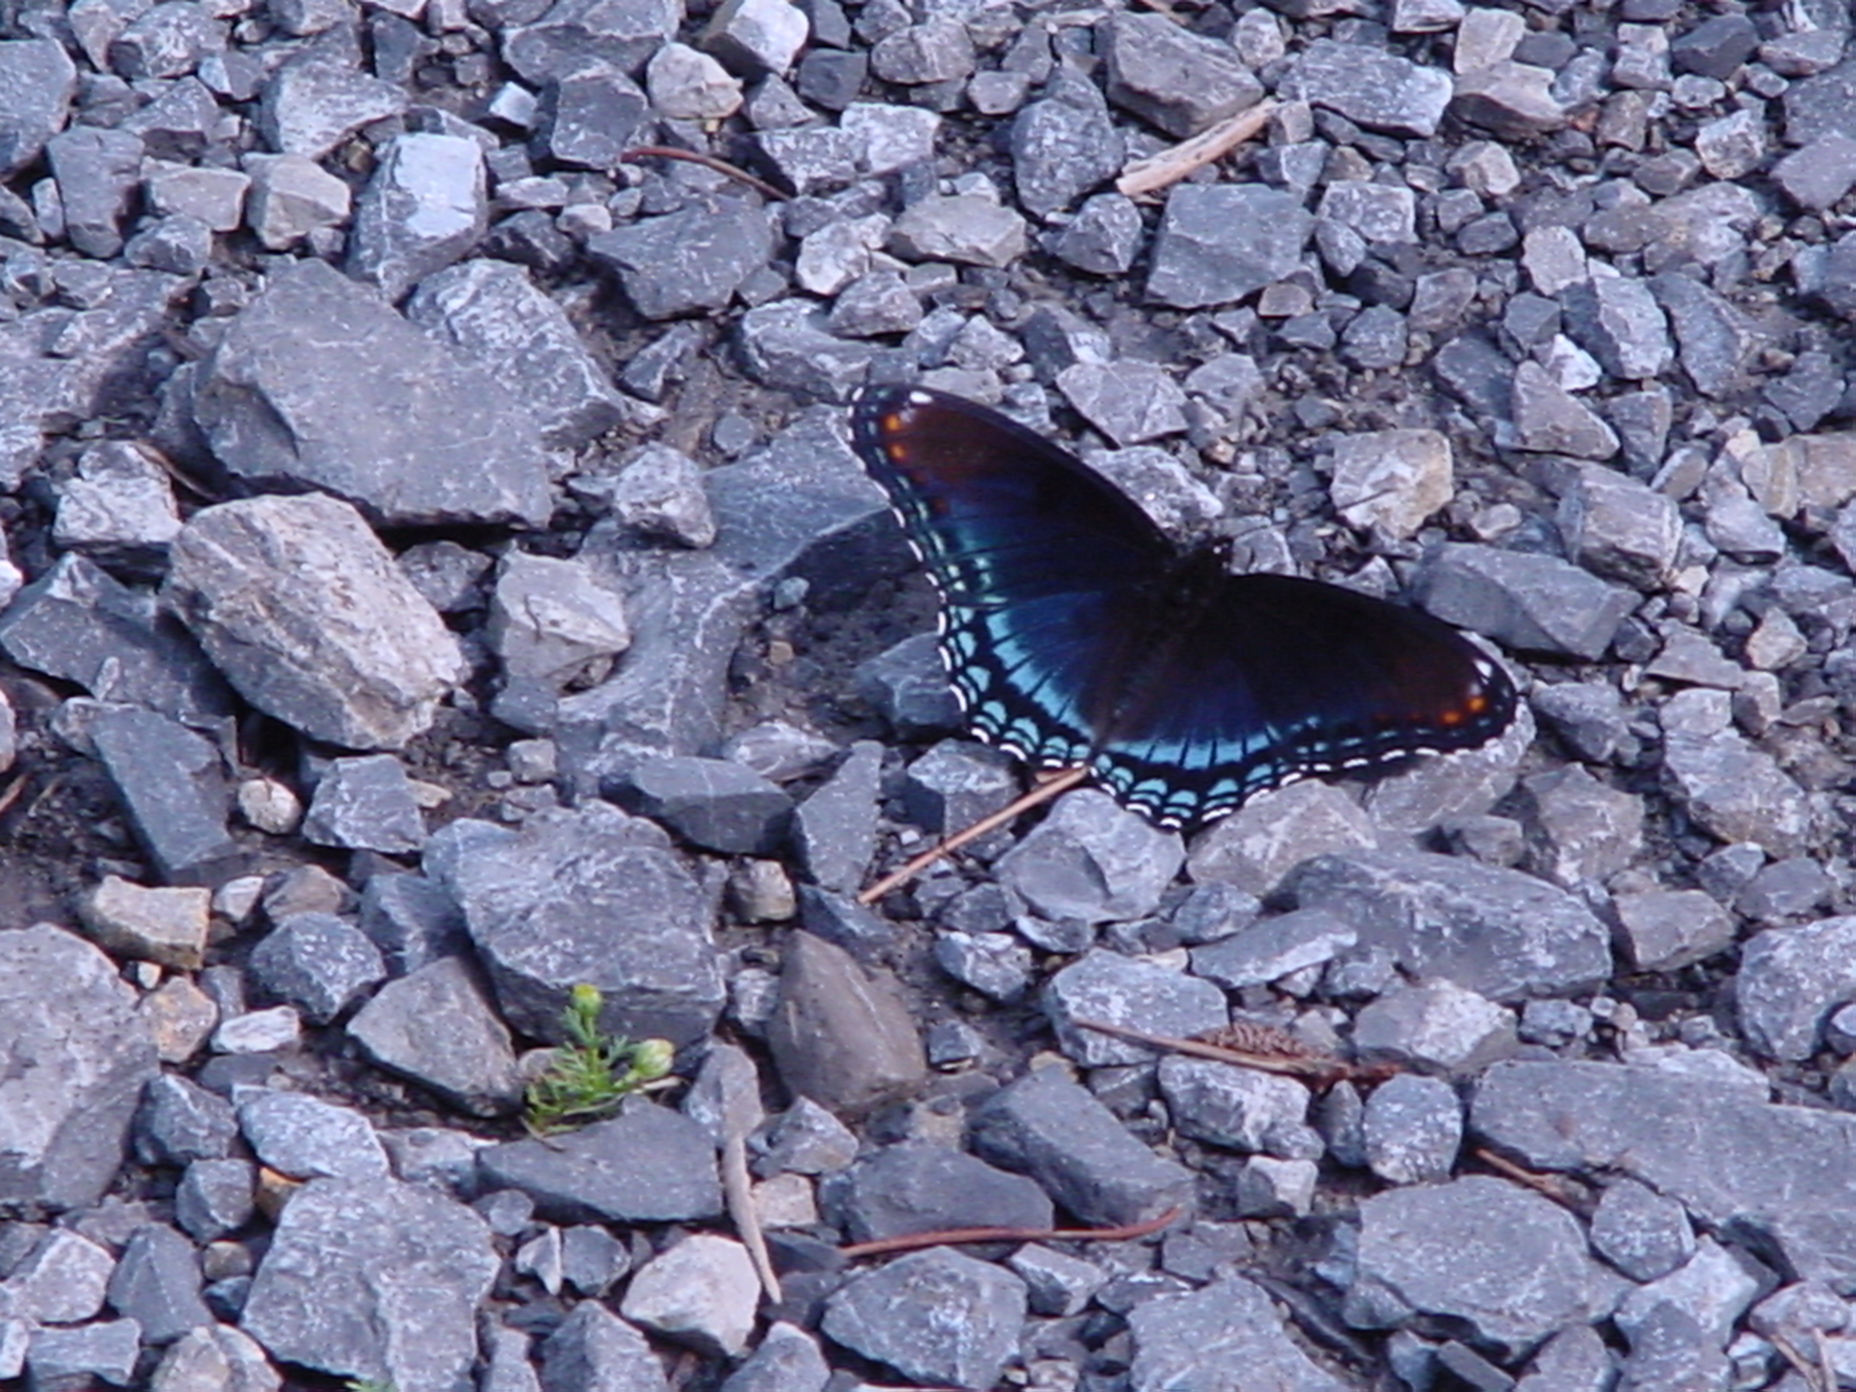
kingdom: Animalia
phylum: Arthropoda
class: Insecta
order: Lepidoptera
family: Nymphalidae
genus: Limenitis
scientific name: Limenitis astyanax
